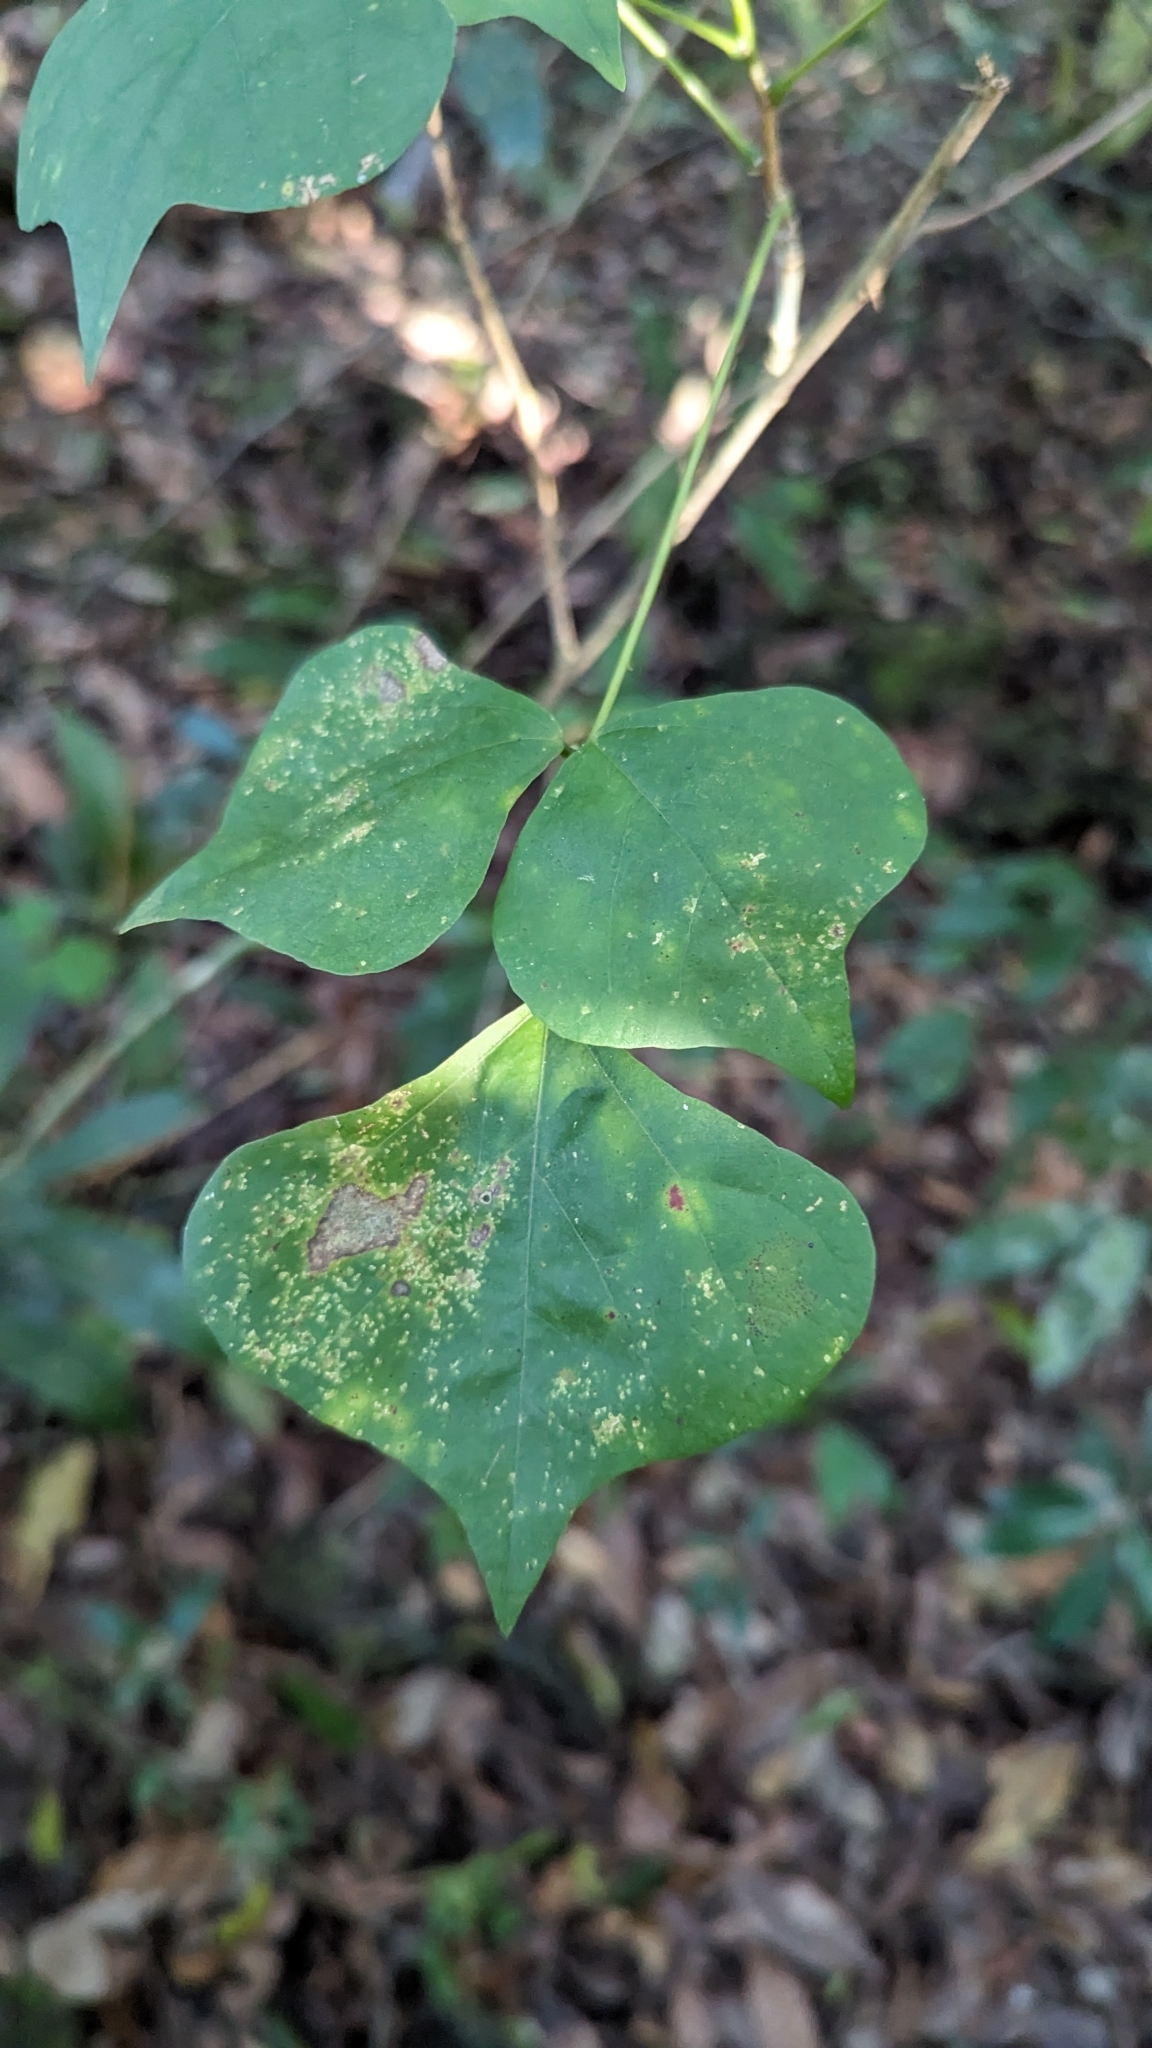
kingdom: Plantae
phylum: Tracheophyta
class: Magnoliopsida
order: Fabales
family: Fabaceae
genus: Erythrina
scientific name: Erythrina herbacea
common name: Coral-bean
